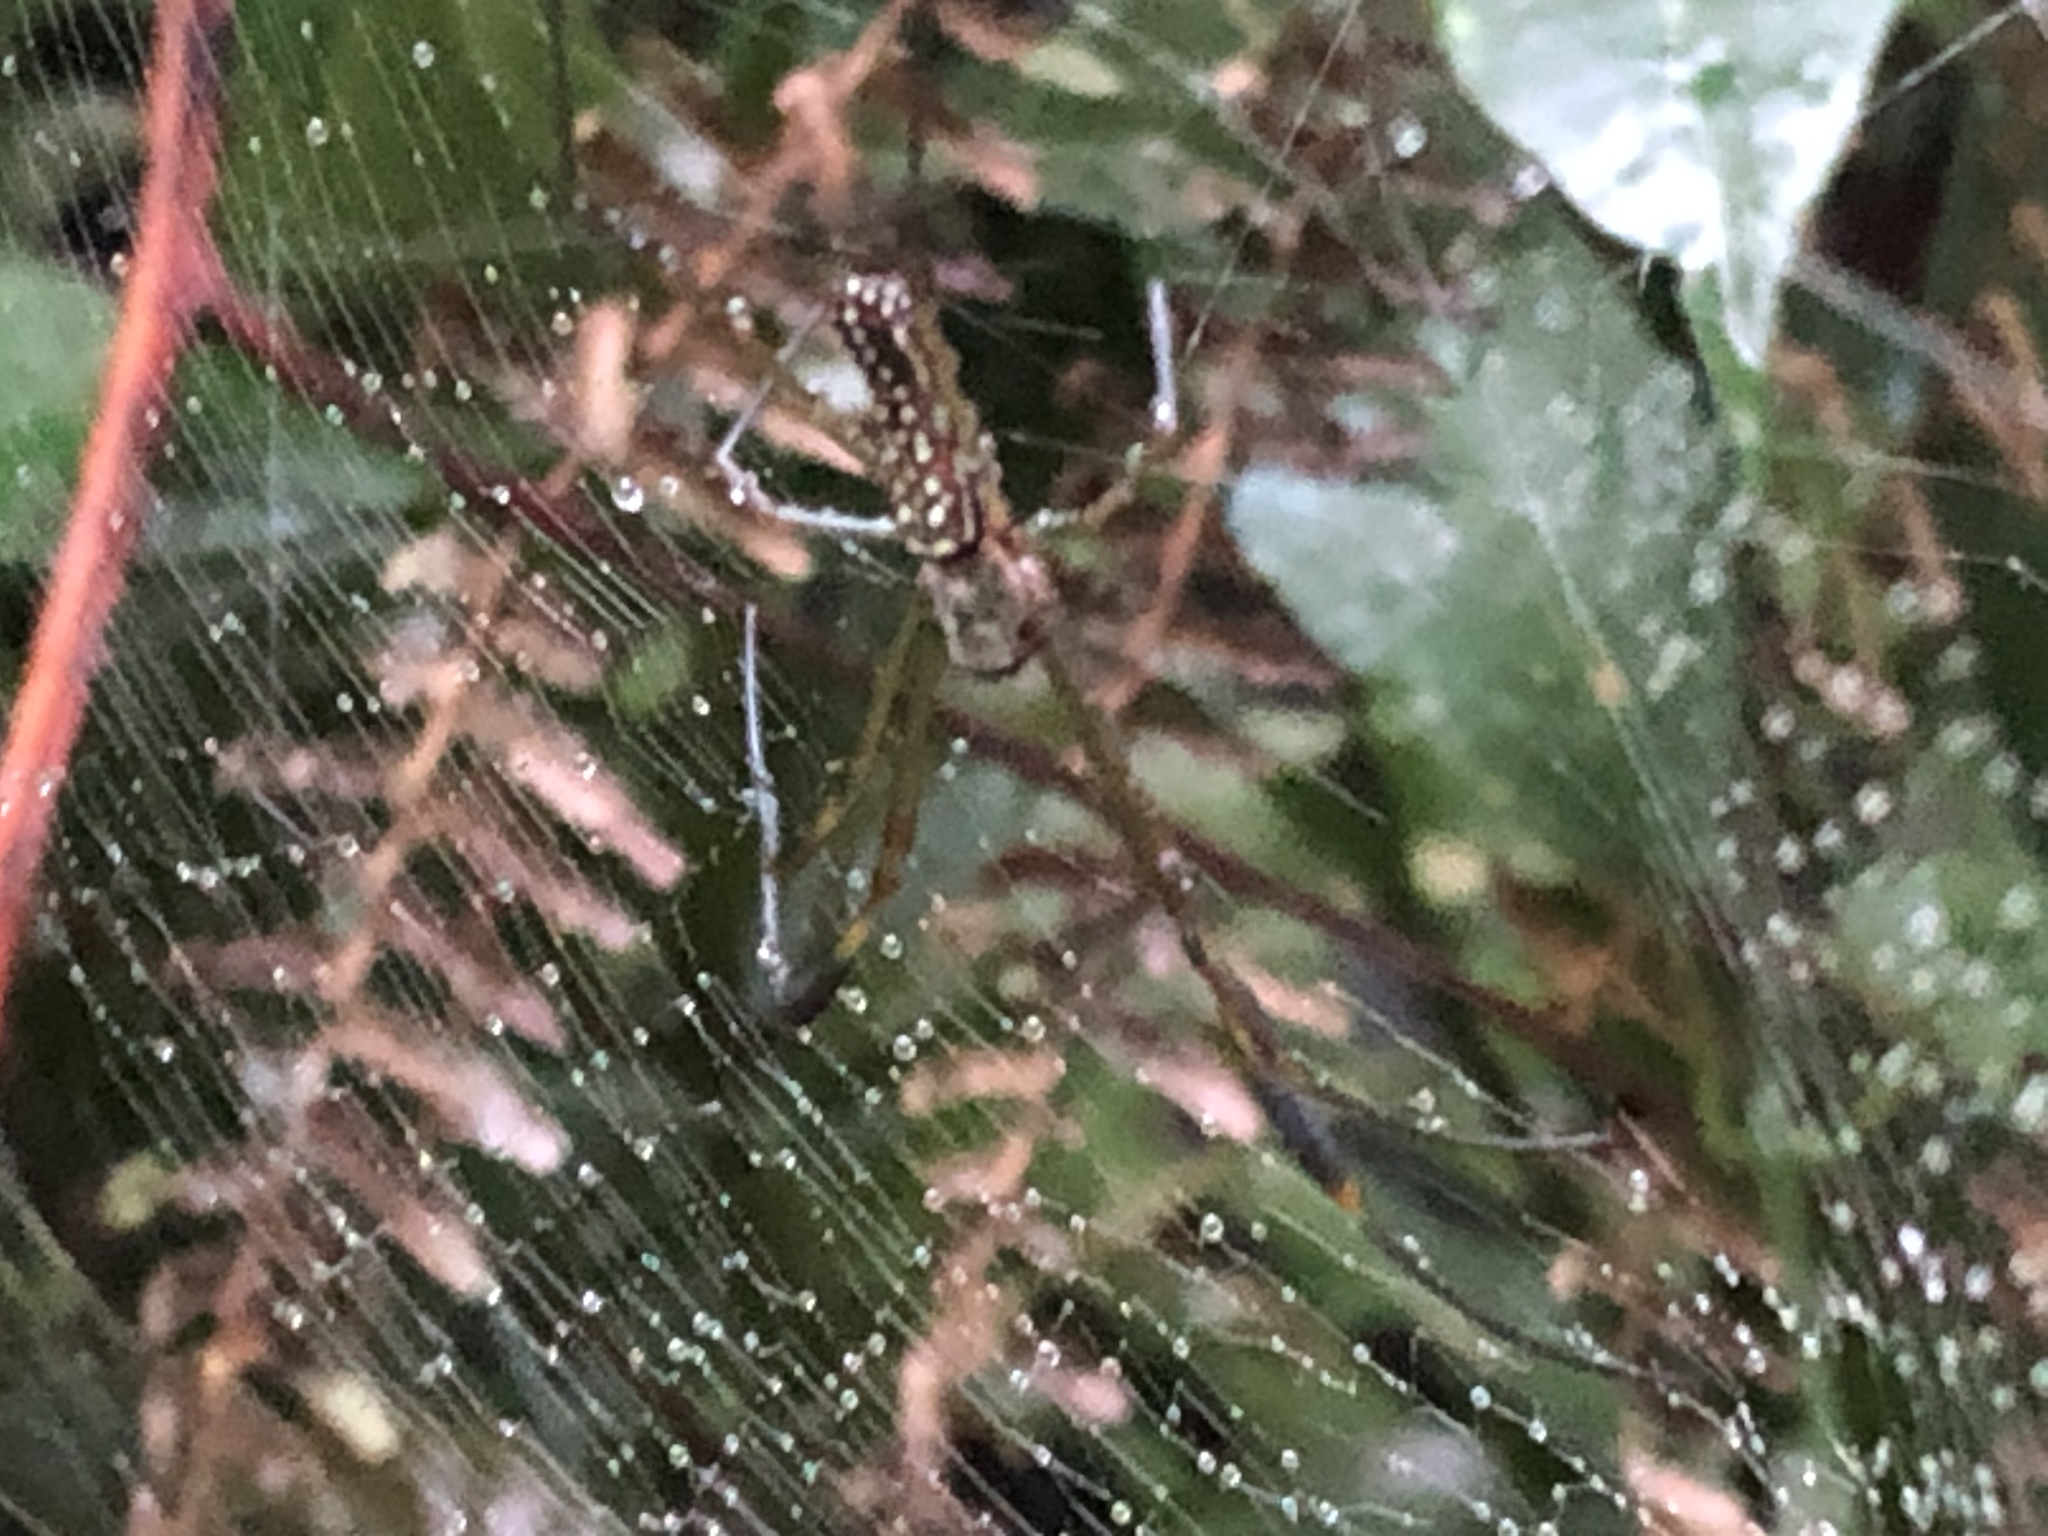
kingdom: Animalia
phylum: Arthropoda
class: Arachnida
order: Araneae
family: Araneidae
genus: Trichonephila
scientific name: Trichonephila clavipes
